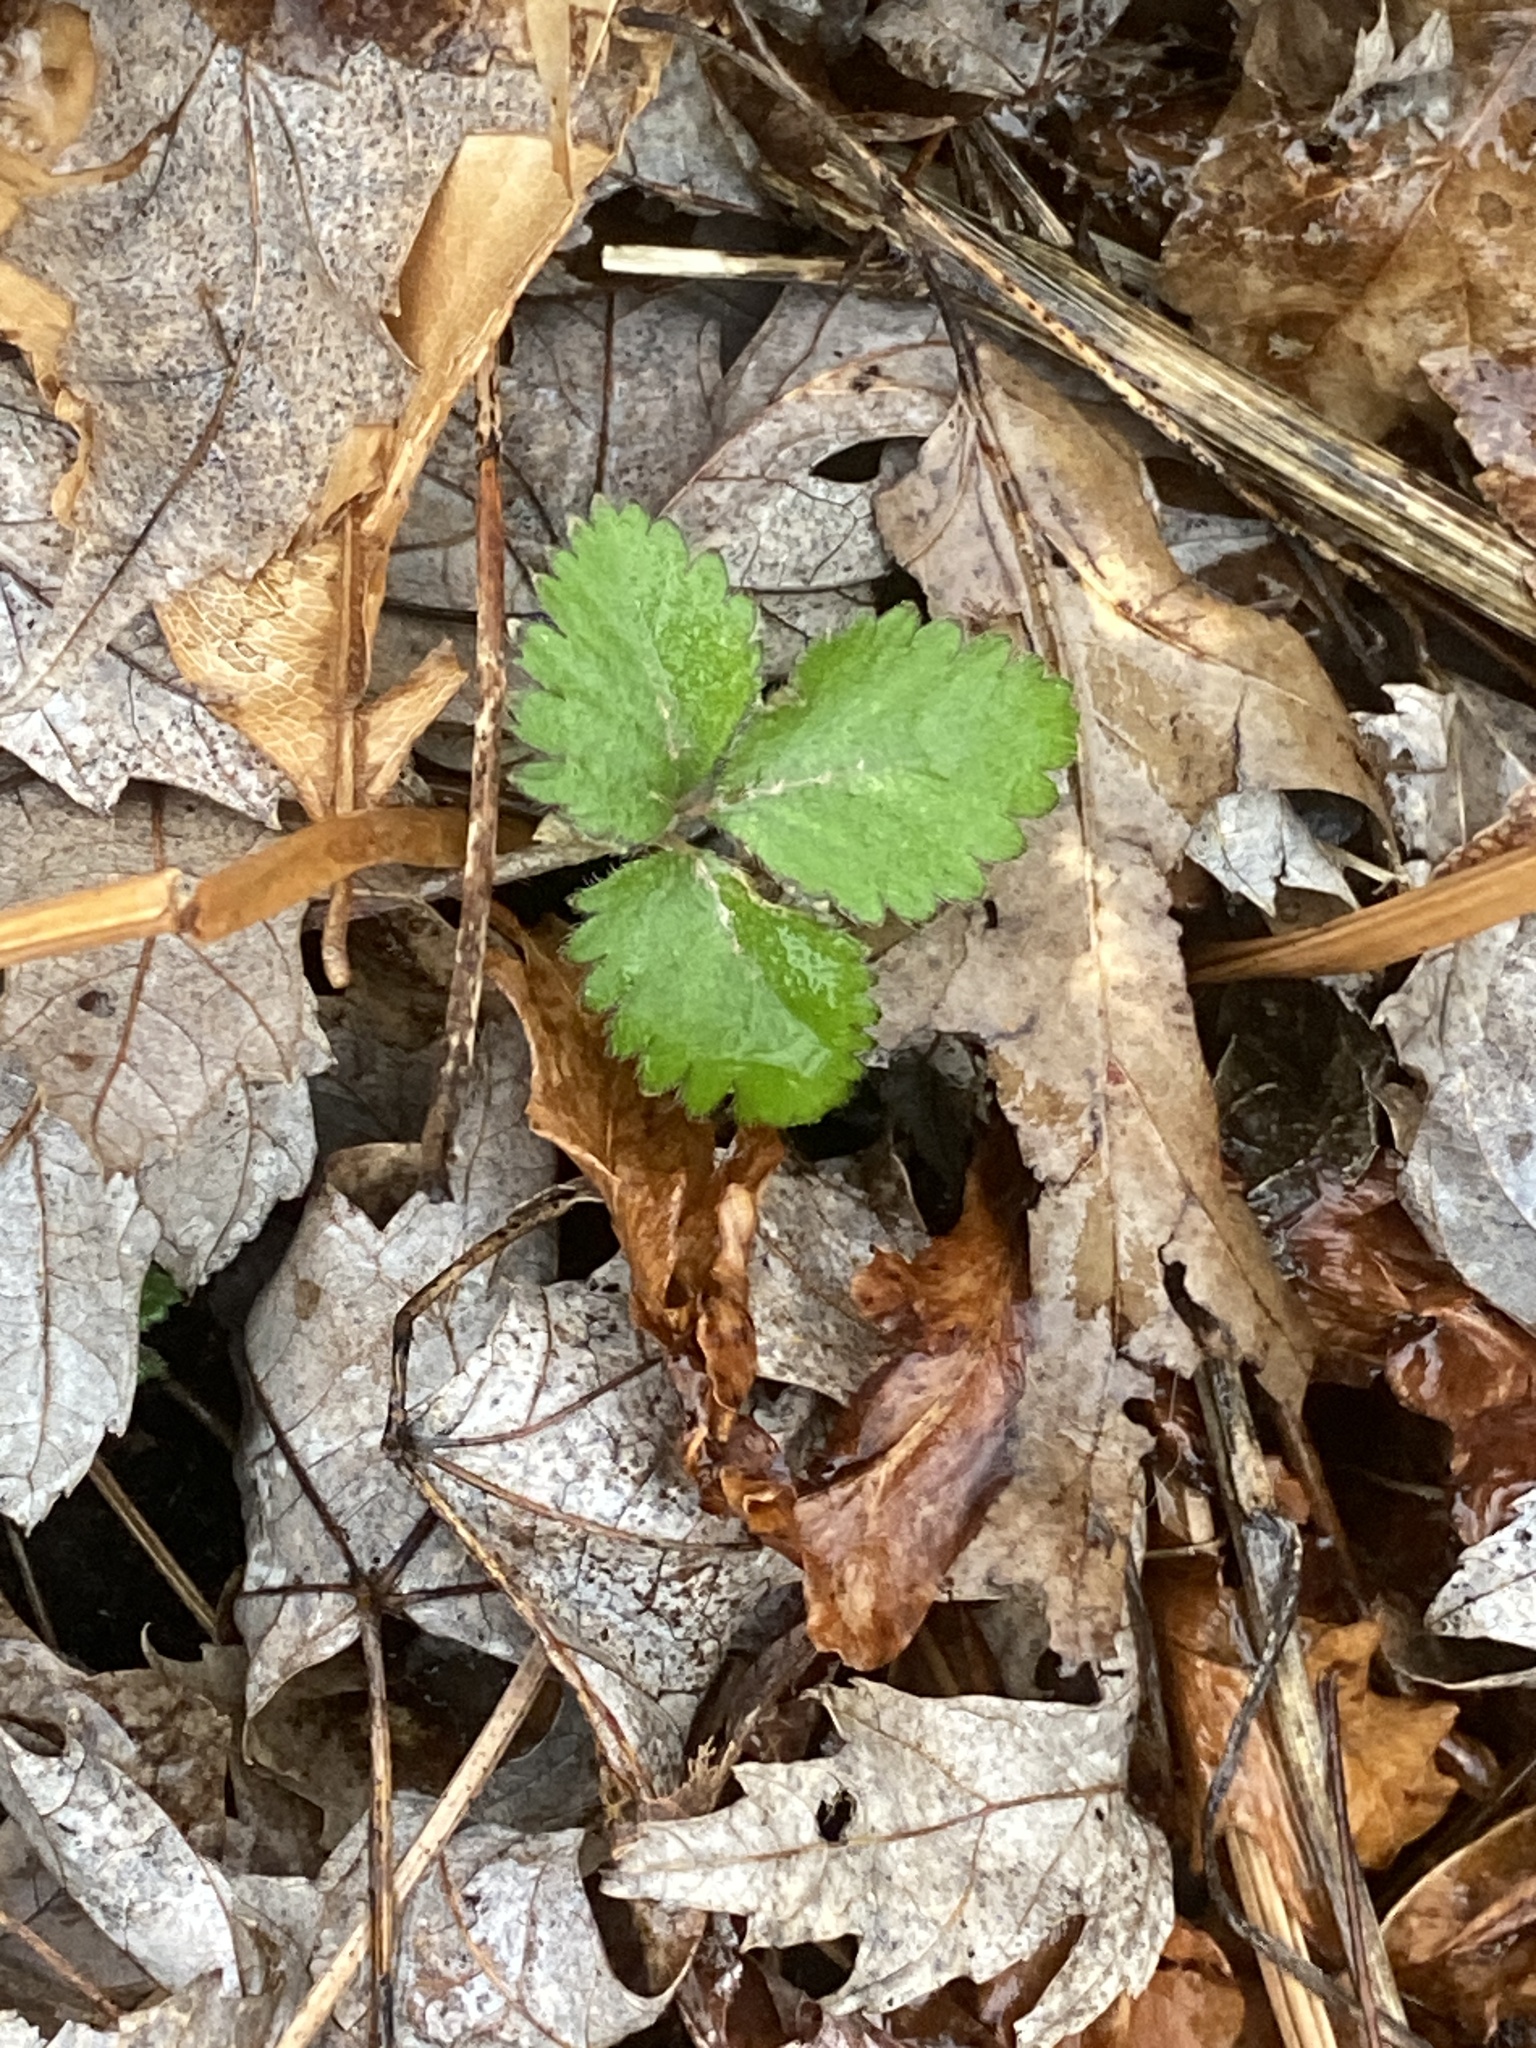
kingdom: Plantae
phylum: Tracheophyta
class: Magnoliopsida
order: Rosales
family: Rosaceae
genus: Potentilla
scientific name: Potentilla indica
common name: Yellow-flowered strawberry
